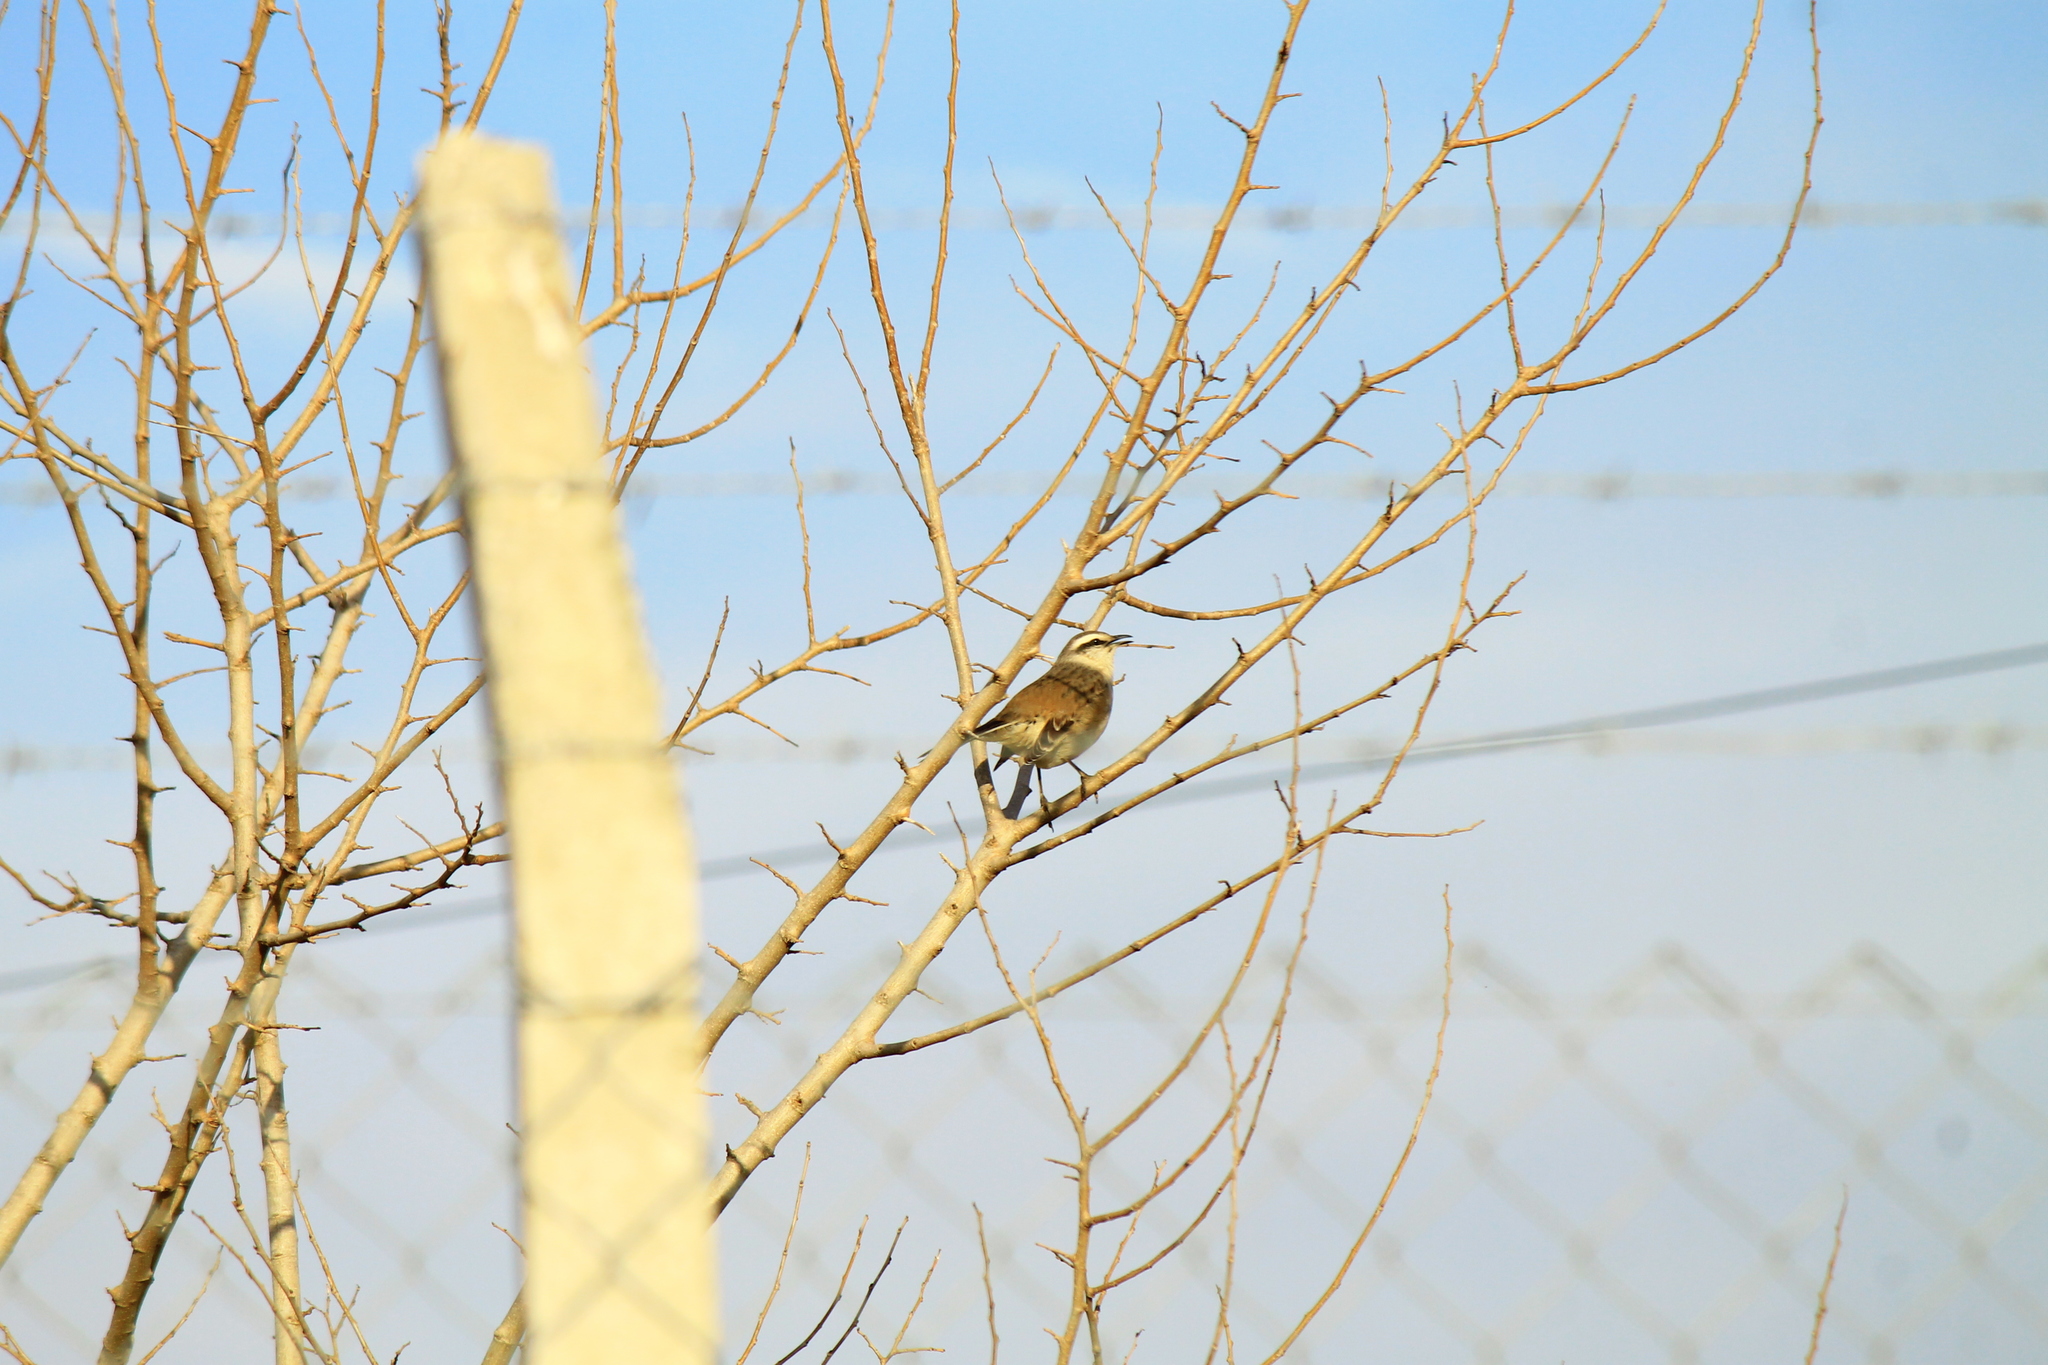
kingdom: Animalia
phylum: Chordata
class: Aves
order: Passeriformes
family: Mimidae
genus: Mimus
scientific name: Mimus saturninus
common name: Chalk-browed mockingbird
